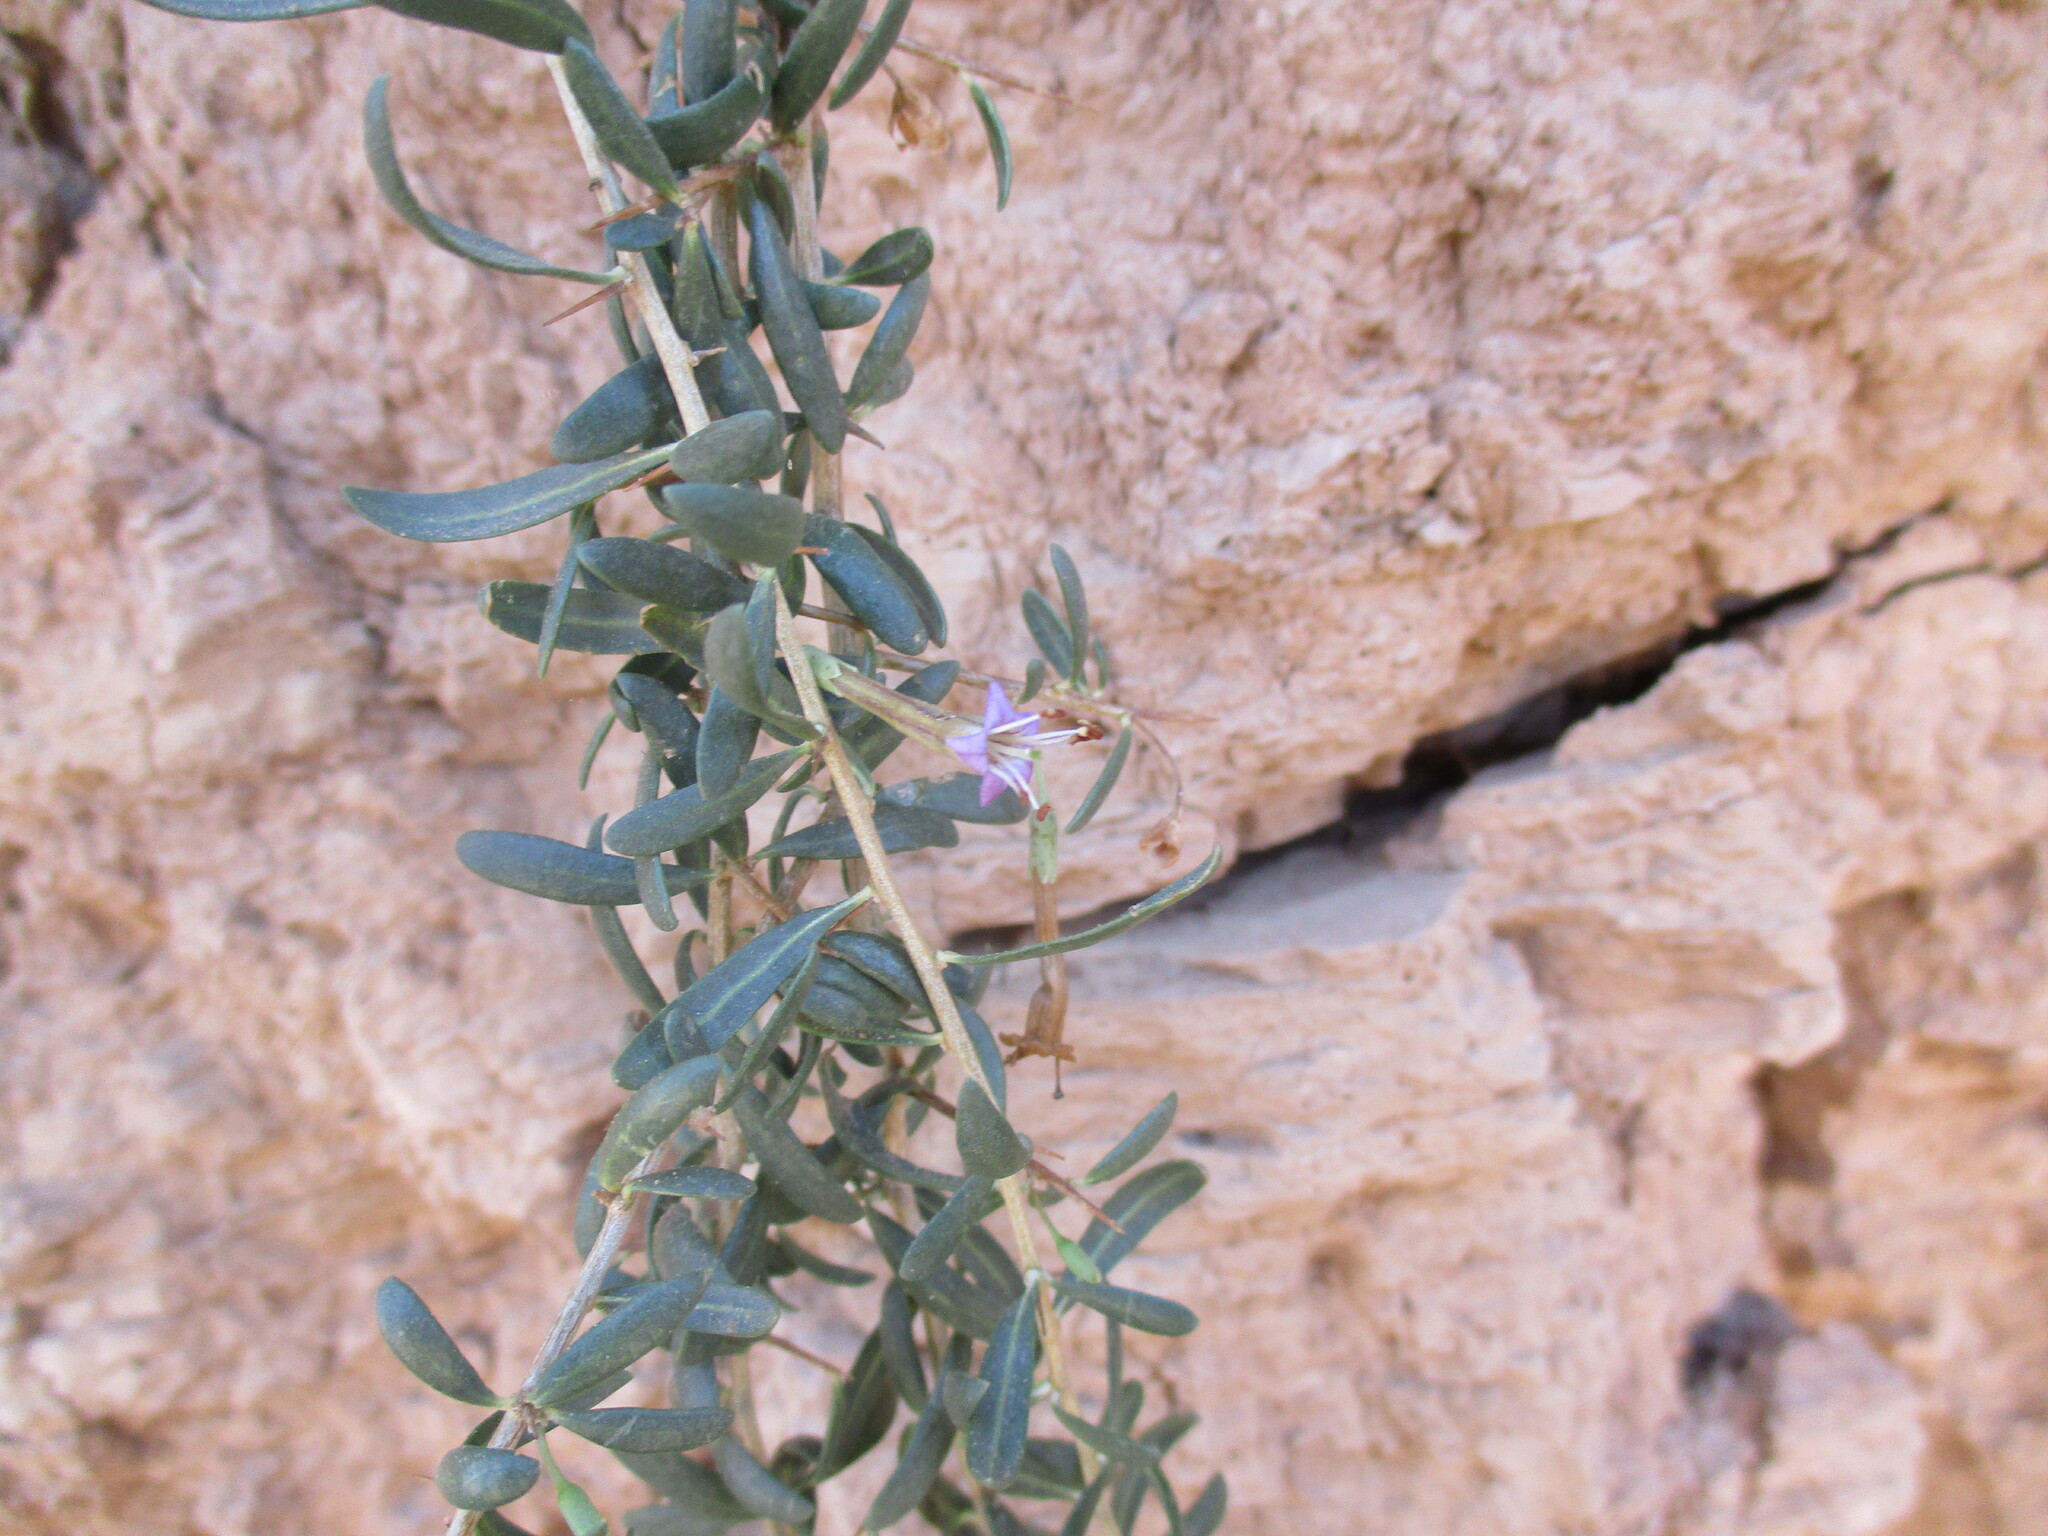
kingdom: Plantae
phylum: Tracheophyta
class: Magnoliopsida
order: Solanales
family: Solanaceae
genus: Lycium
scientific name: Lycium bosciifolium
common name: Limpopo honey-thorn
